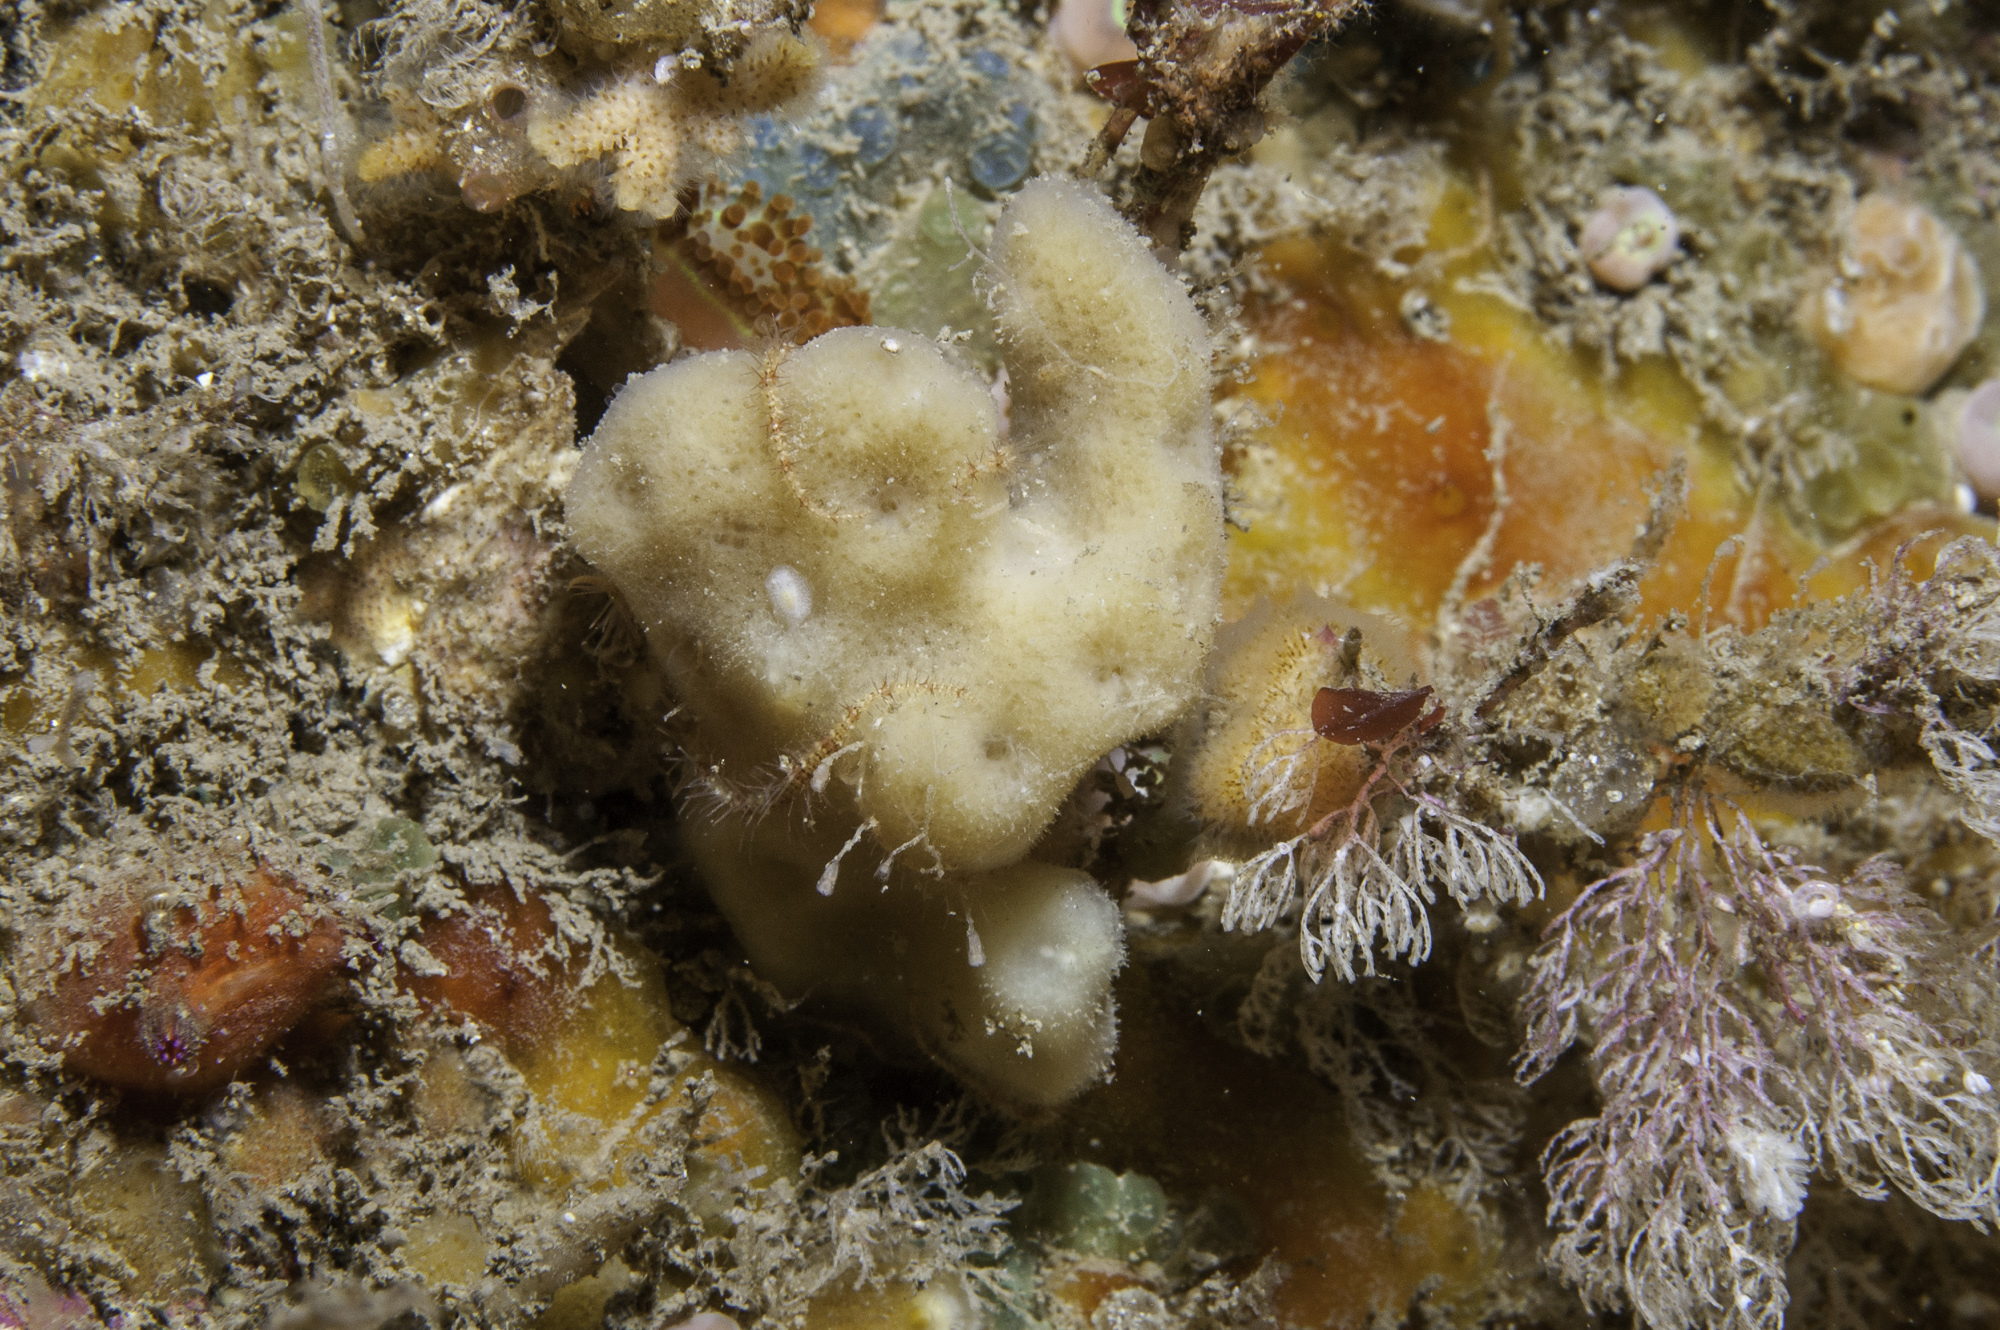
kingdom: Animalia
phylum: Porifera
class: Demospongiae
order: Dendroceratida
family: Dictyodendrillidae
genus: Spongionella
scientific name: Spongionella pulchella
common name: Gorgeous horny sponge
